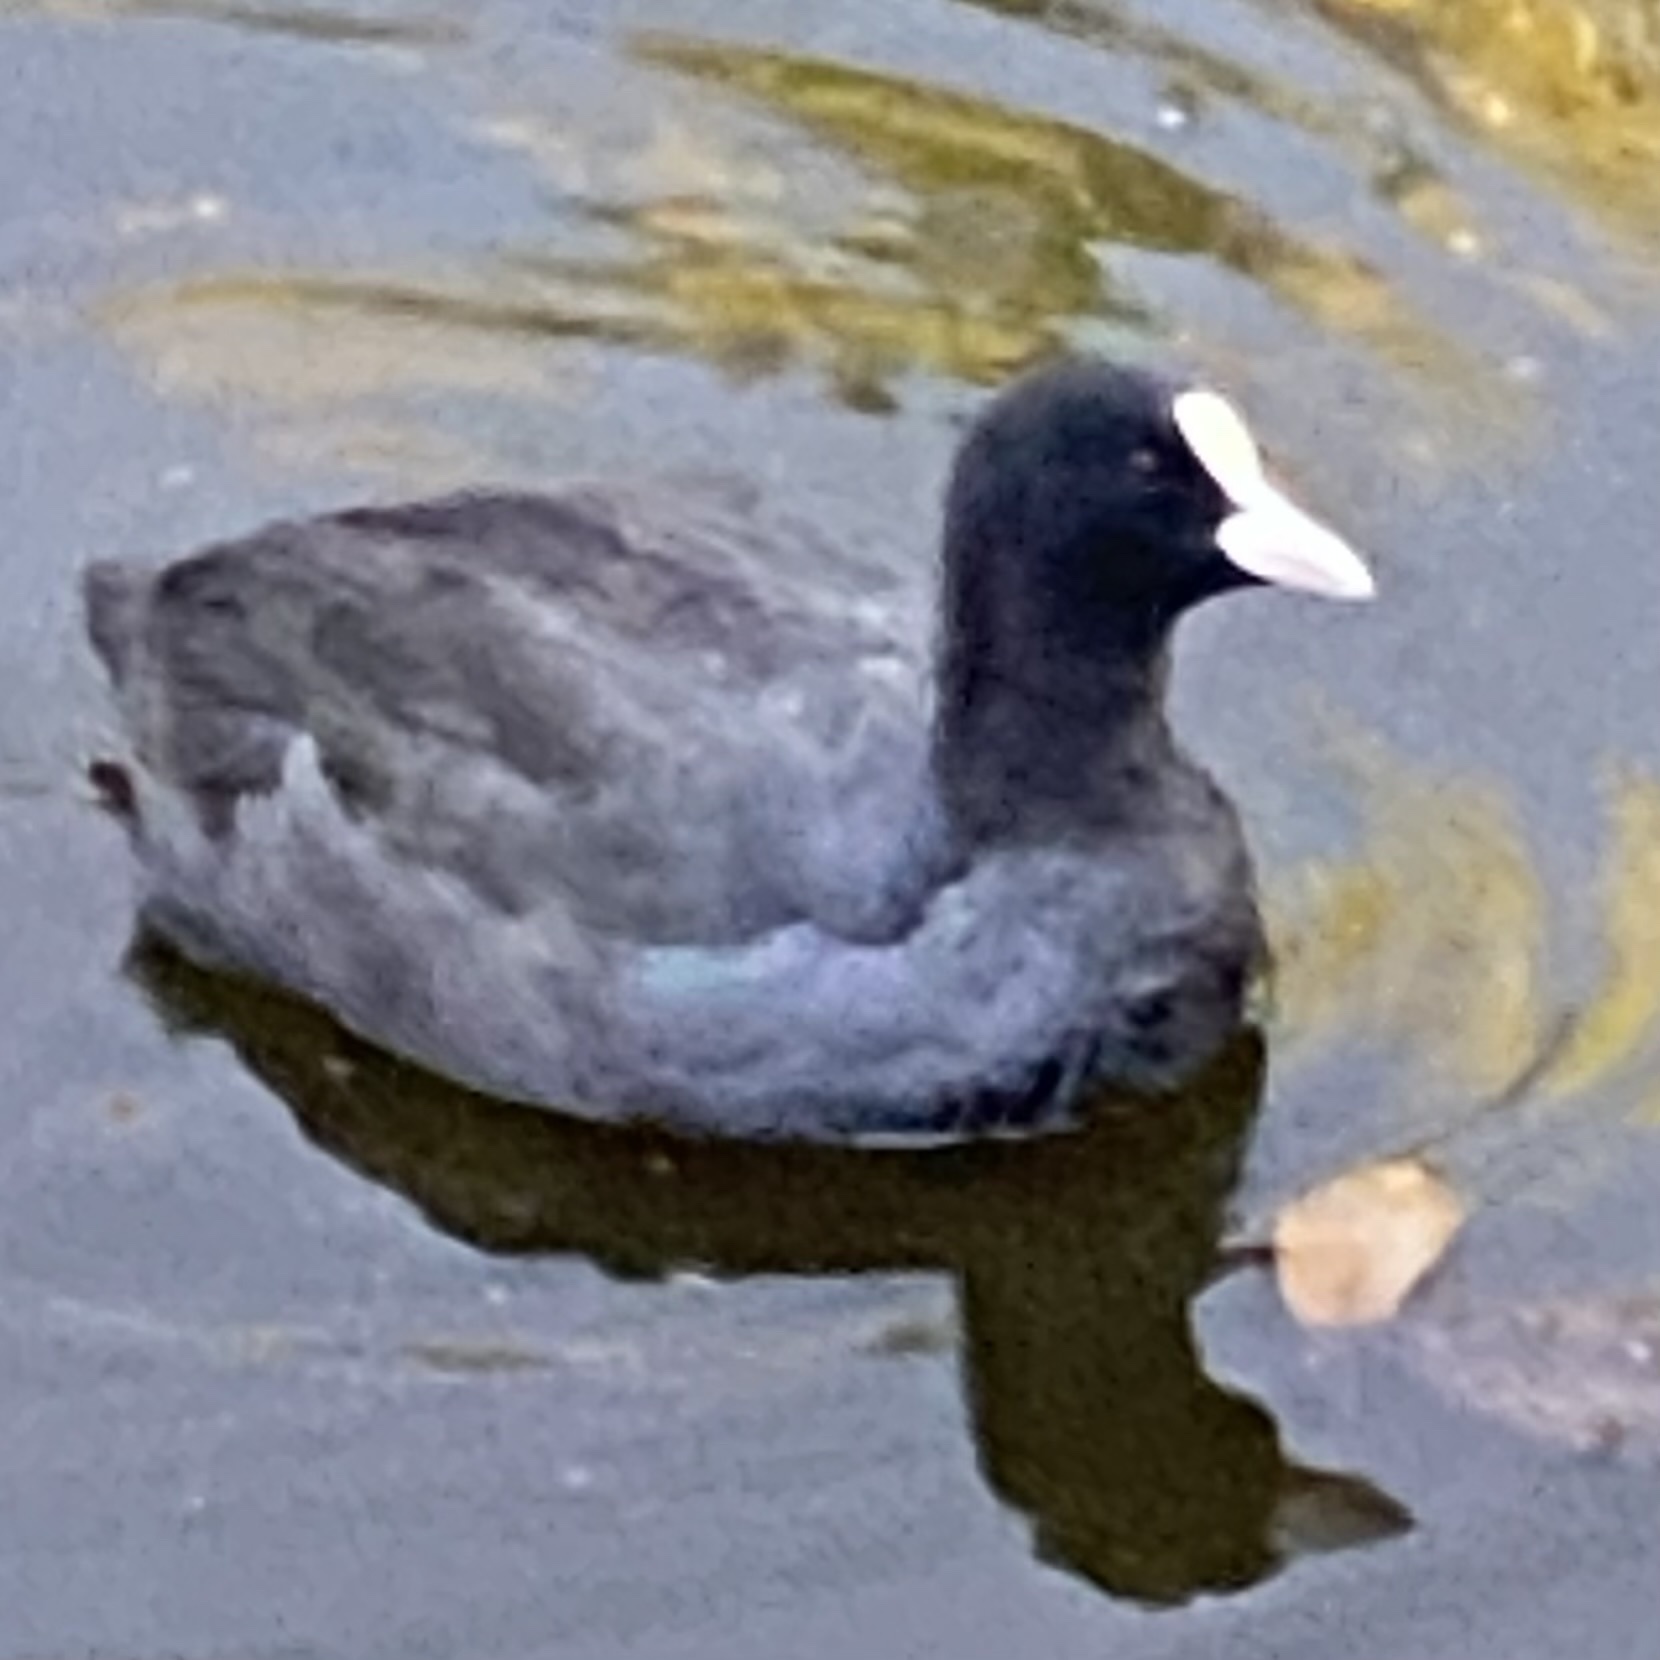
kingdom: Animalia
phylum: Chordata
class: Aves
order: Gruiformes
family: Rallidae
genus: Fulica
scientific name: Fulica atra
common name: Eurasian coot
